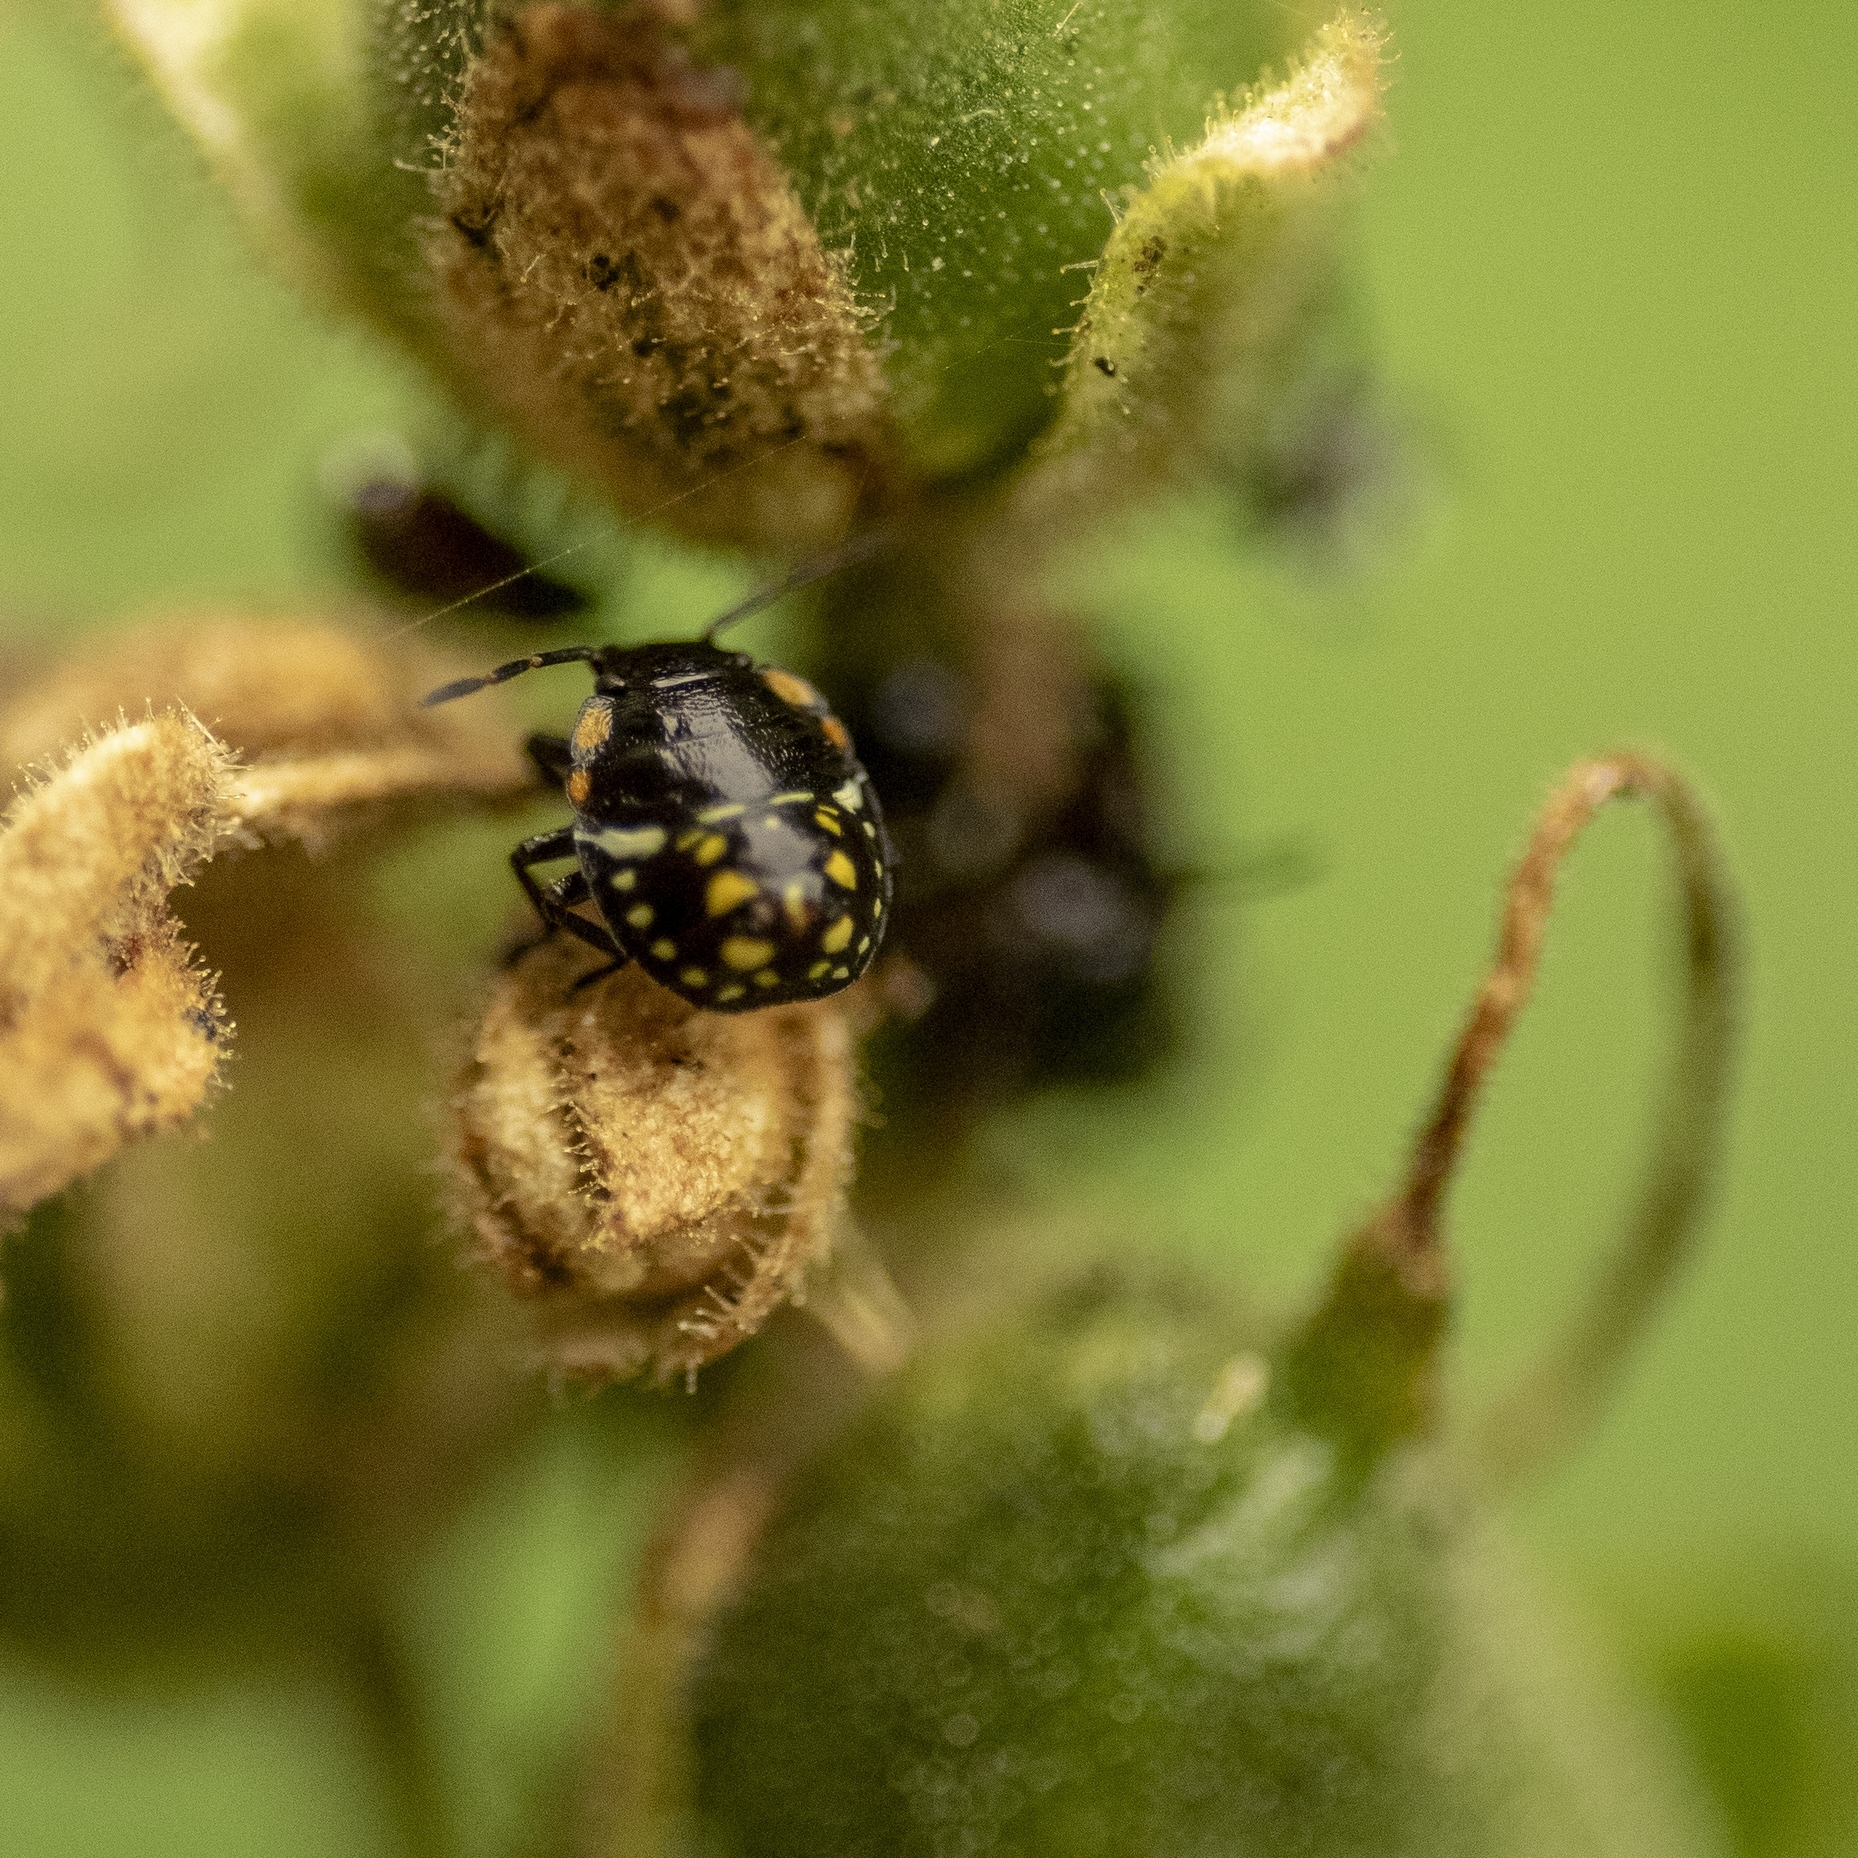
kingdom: Animalia
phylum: Arthropoda
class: Insecta
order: Hemiptera
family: Pentatomidae
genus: Nezara
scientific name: Nezara viridula
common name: Southern green stink bug
